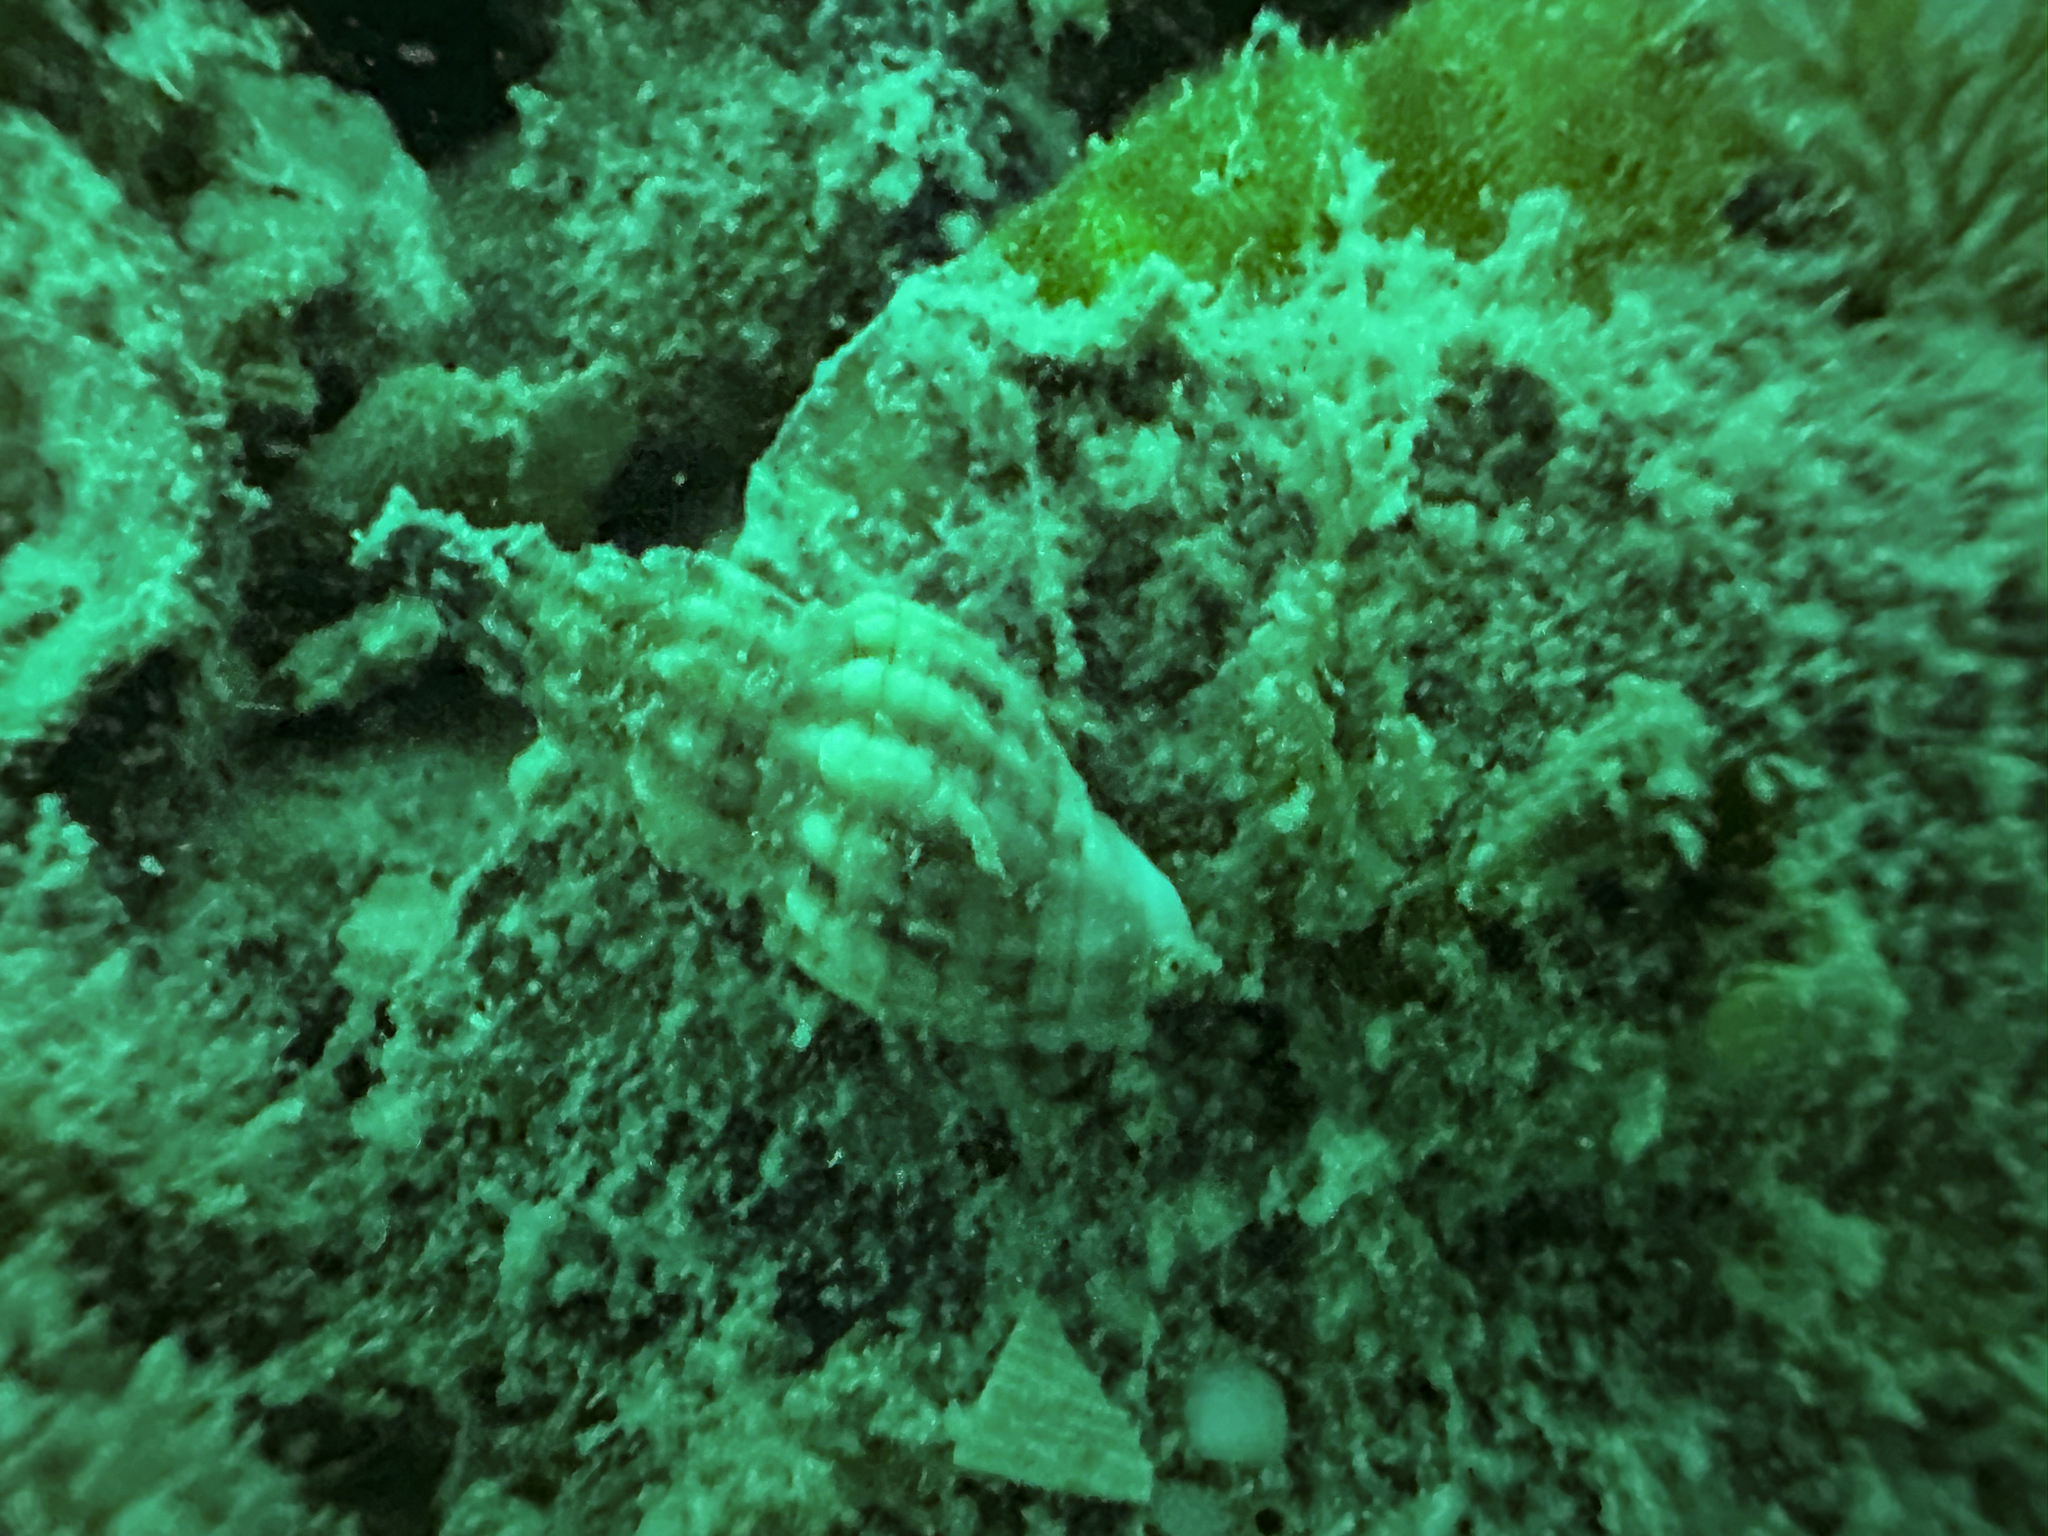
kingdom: Animalia
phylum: Mollusca
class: Gastropoda
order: Neogastropoda
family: Cominellidae
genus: Cominella
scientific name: Cominella quoyana
